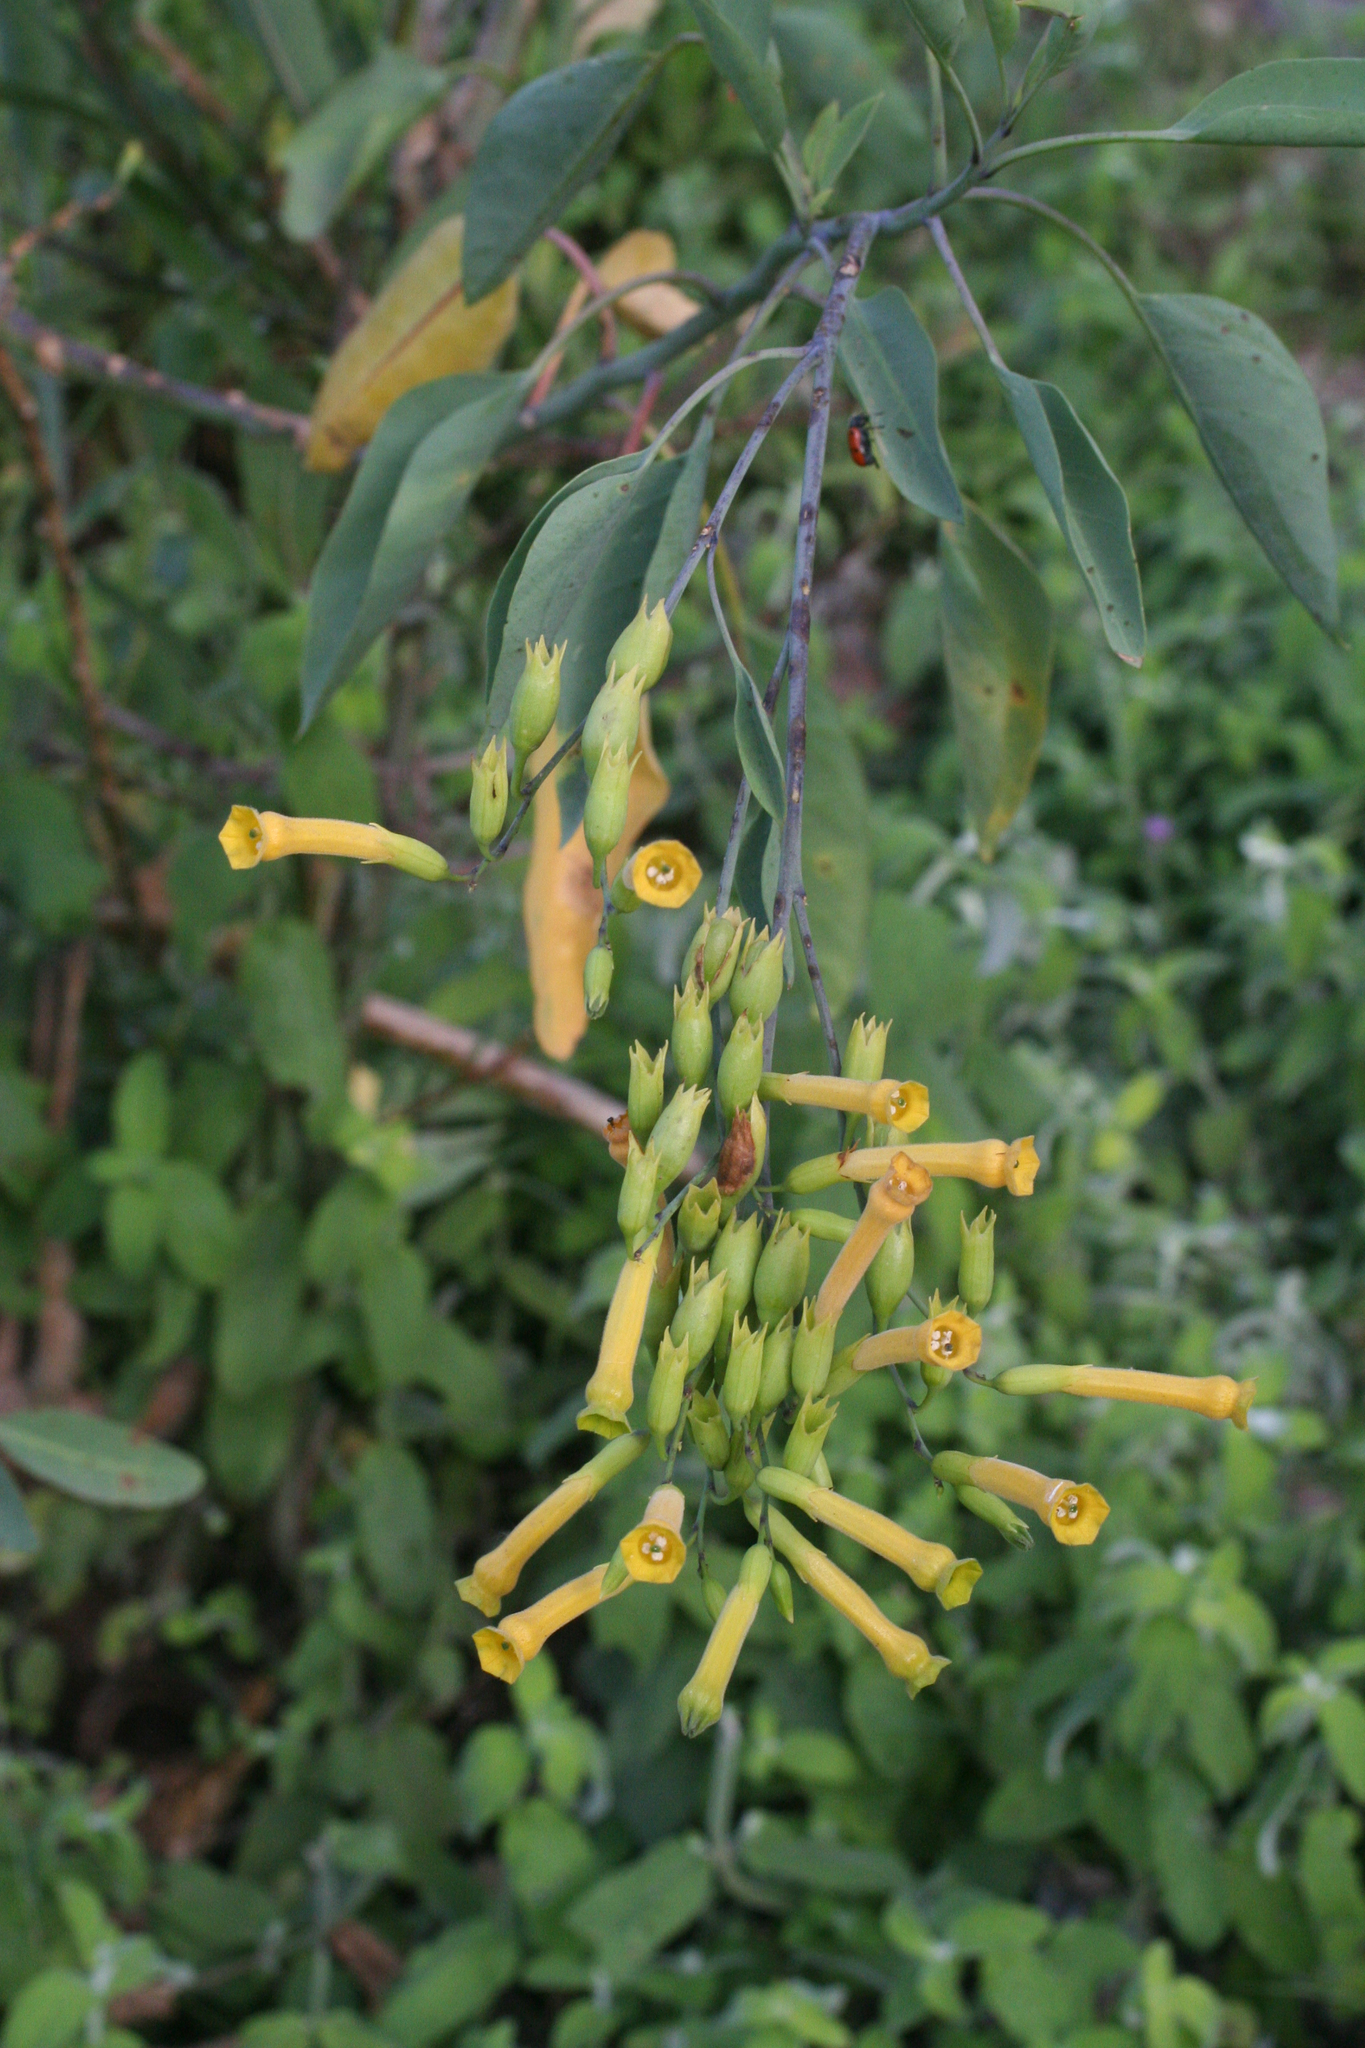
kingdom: Plantae
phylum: Tracheophyta
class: Magnoliopsida
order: Solanales
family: Solanaceae
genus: Nicotiana
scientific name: Nicotiana glauca
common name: Tree tobacco
